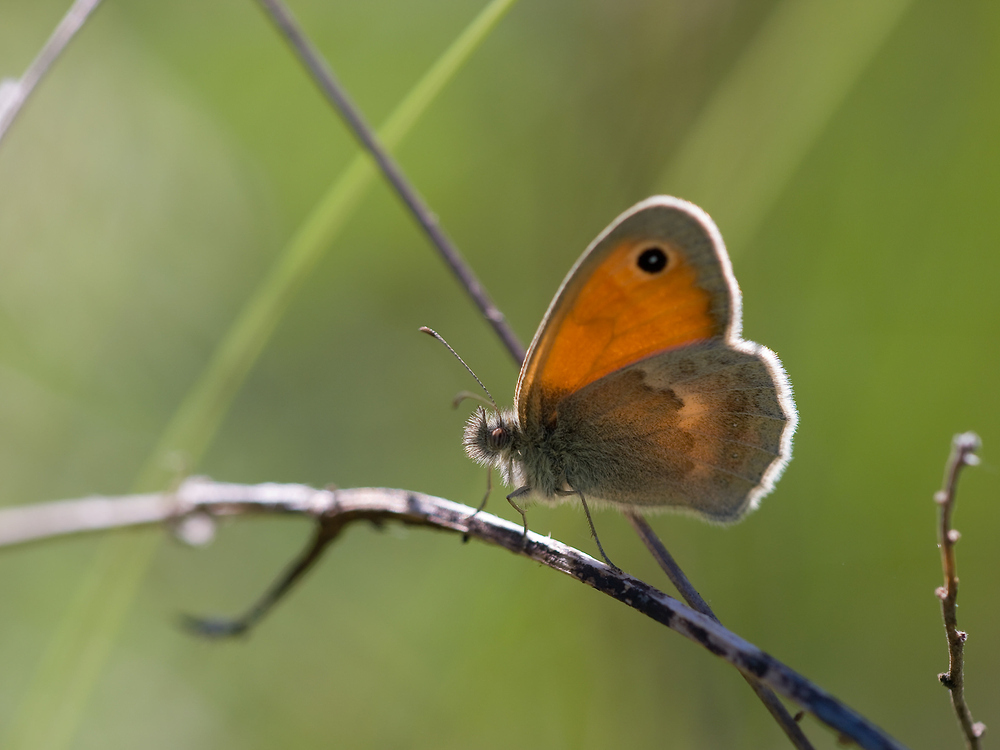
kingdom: Animalia
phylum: Arthropoda
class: Insecta
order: Lepidoptera
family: Nymphalidae
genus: Coenonympha
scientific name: Coenonympha pamphilus
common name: Small heath
